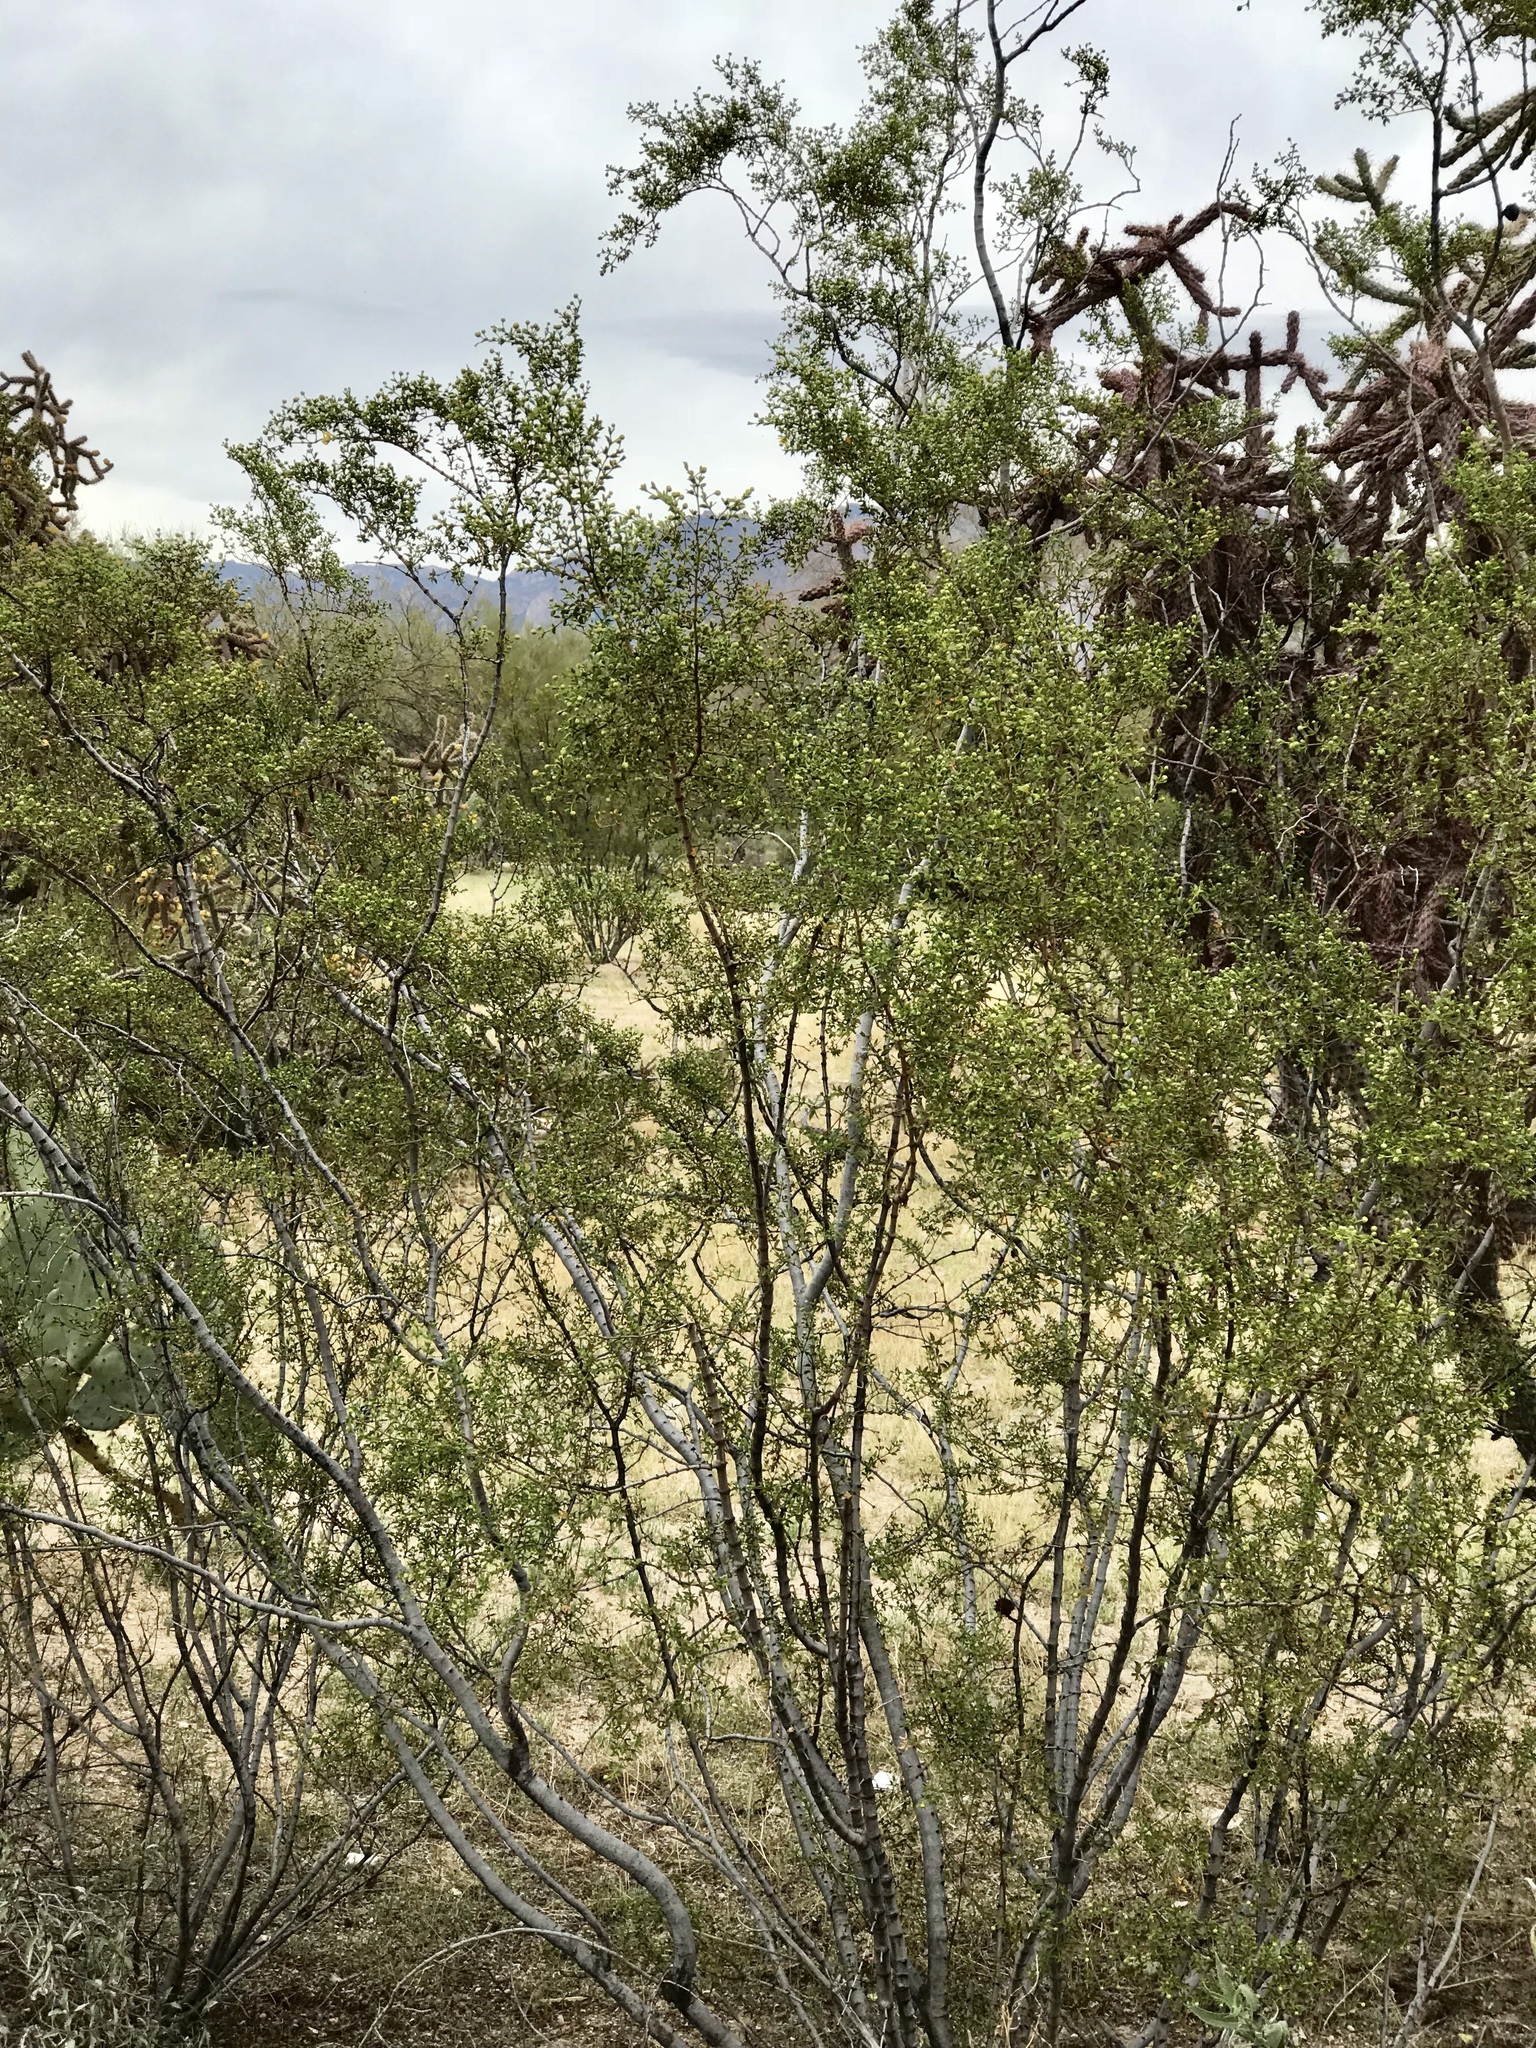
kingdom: Plantae
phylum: Tracheophyta
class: Magnoliopsida
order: Zygophyllales
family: Zygophyllaceae
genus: Larrea
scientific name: Larrea tridentata
